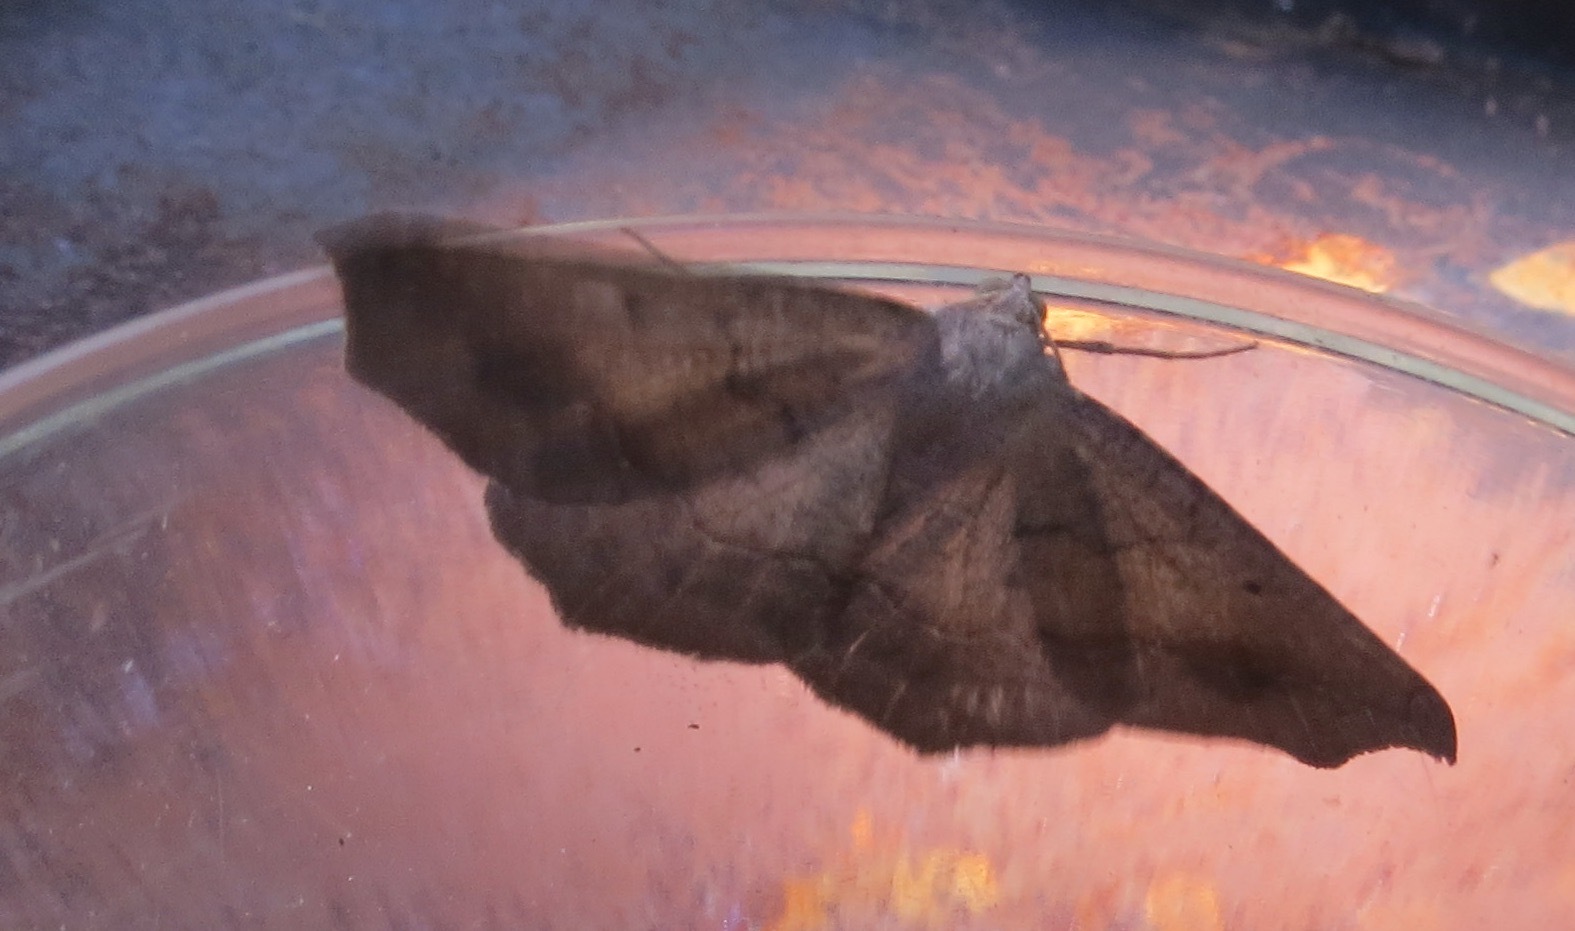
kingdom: Animalia
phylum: Arthropoda
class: Insecta
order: Lepidoptera
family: Geometridae
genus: Prochoerodes
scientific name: Prochoerodes forficaria
